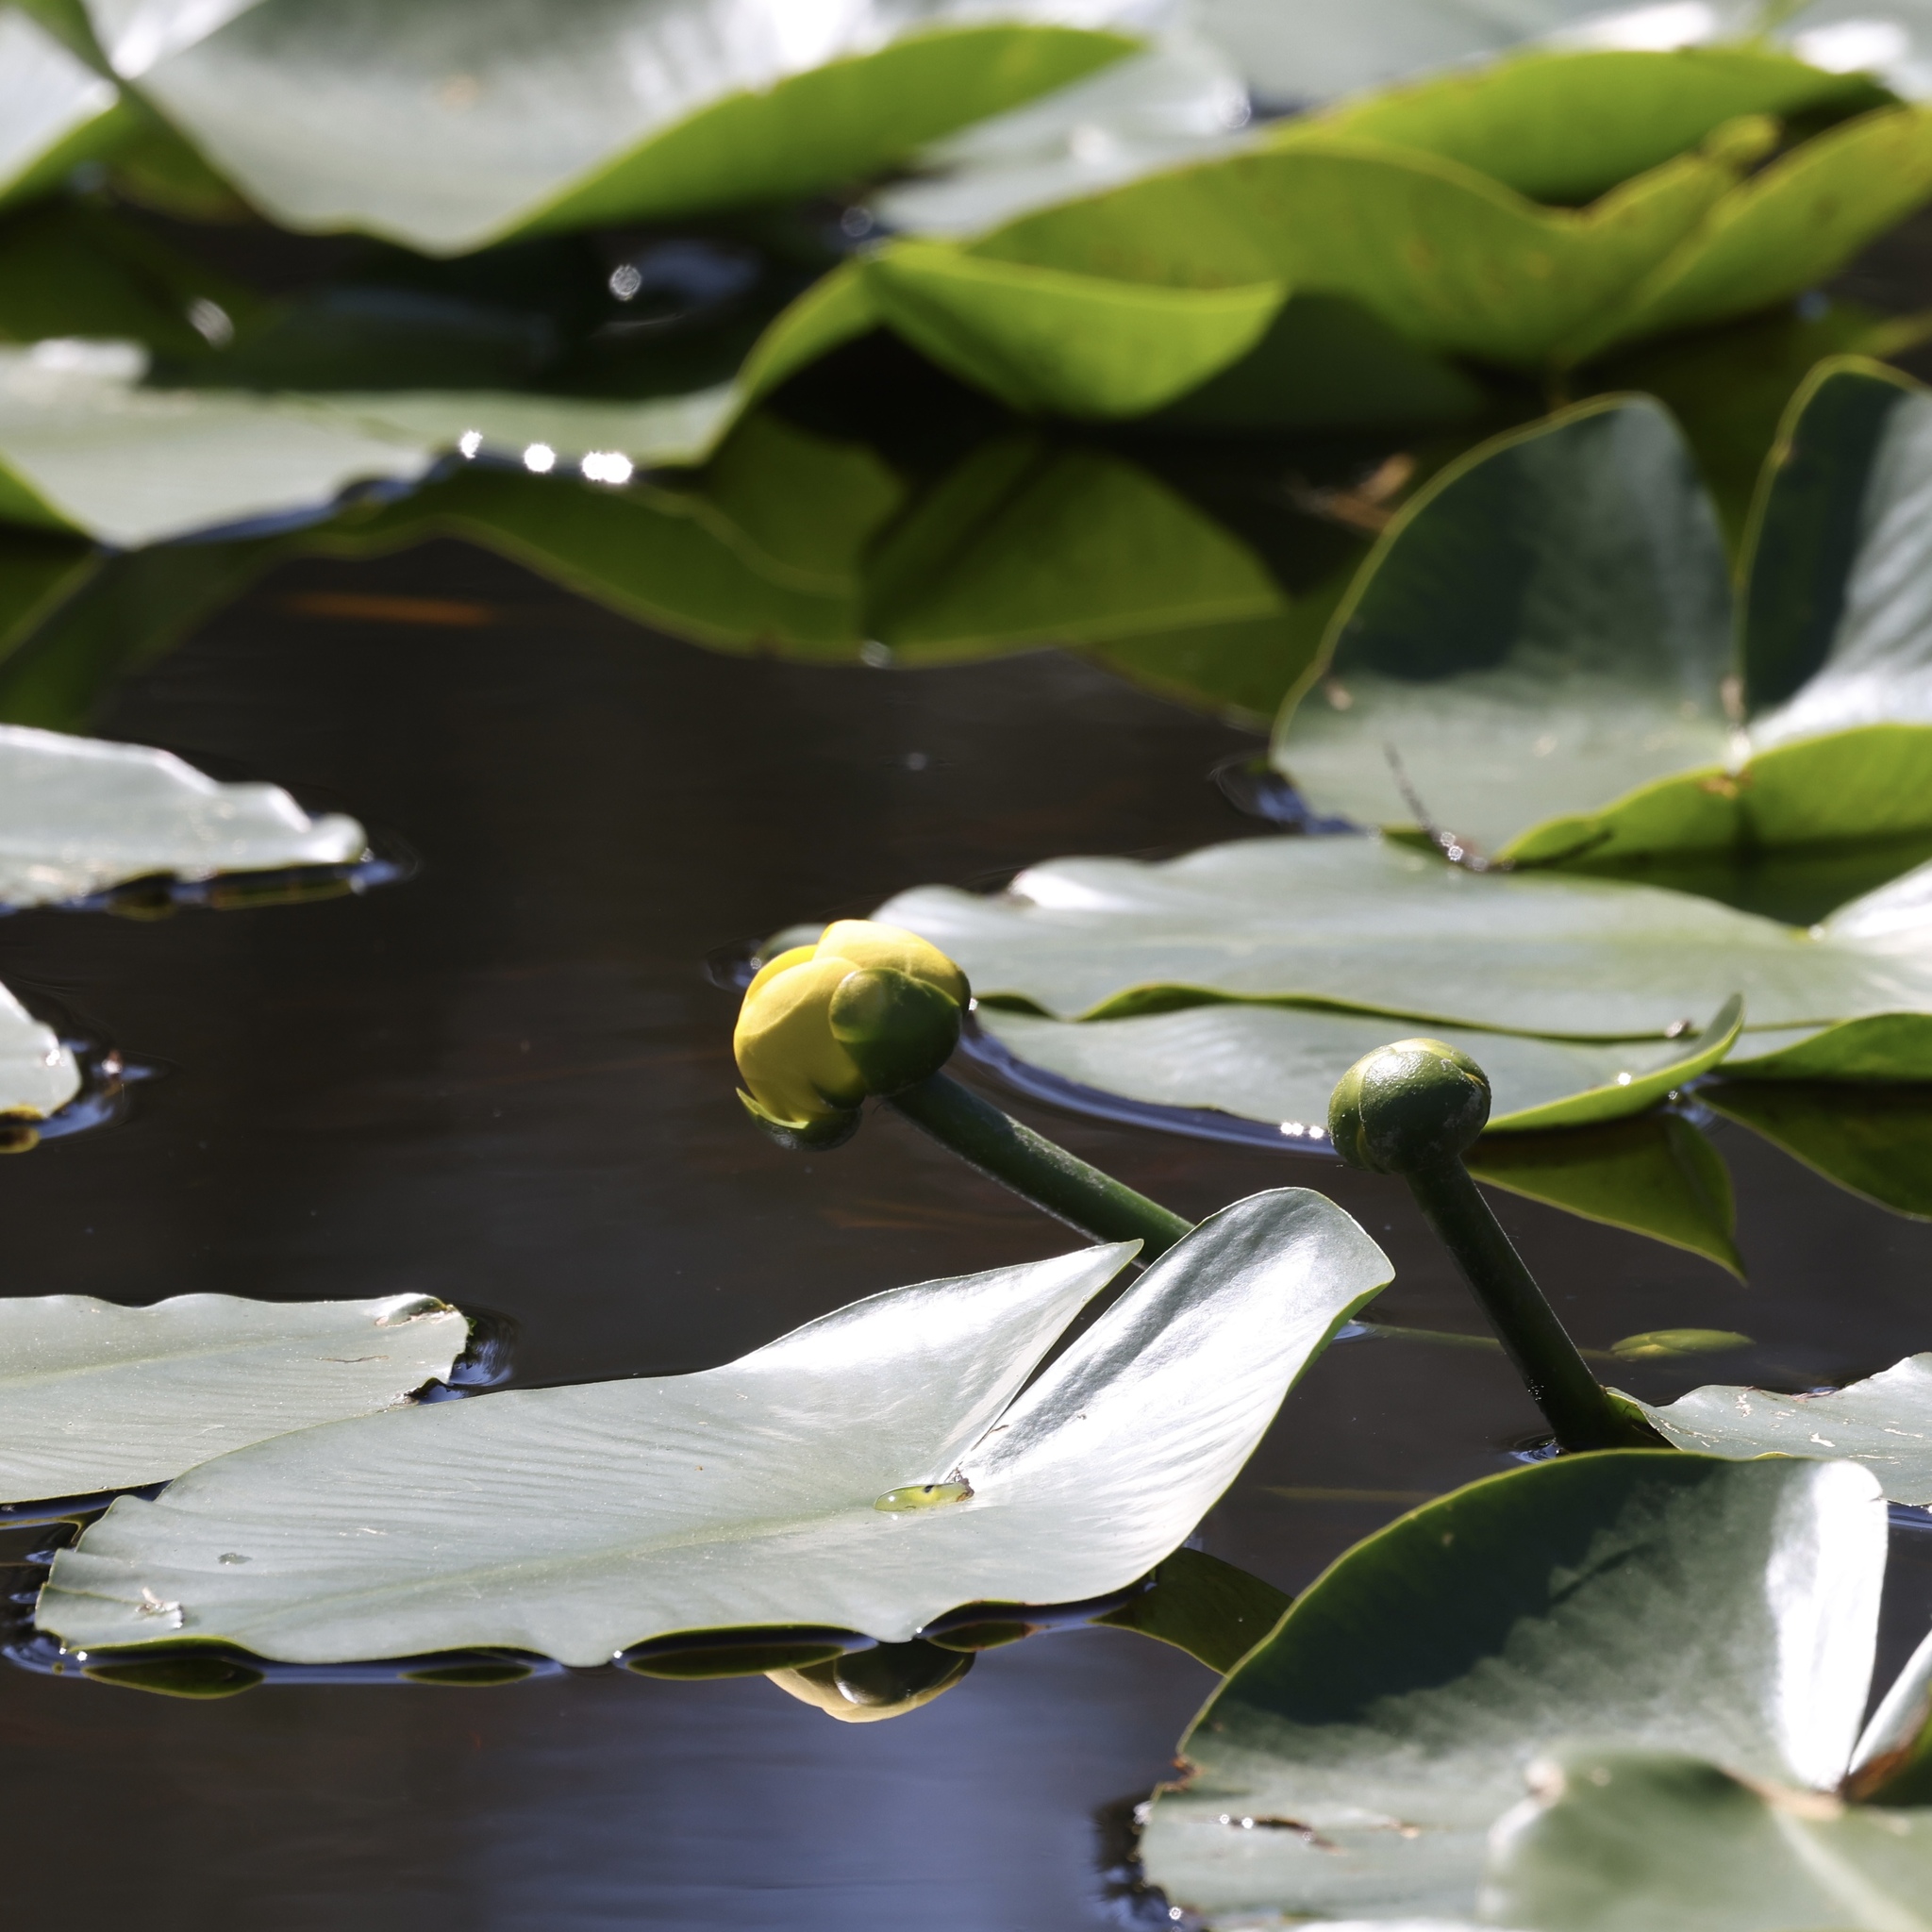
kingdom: Plantae
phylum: Tracheophyta
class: Magnoliopsida
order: Nymphaeales
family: Nymphaeaceae
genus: Nuphar
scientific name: Nuphar advena
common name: Spatter-dock
